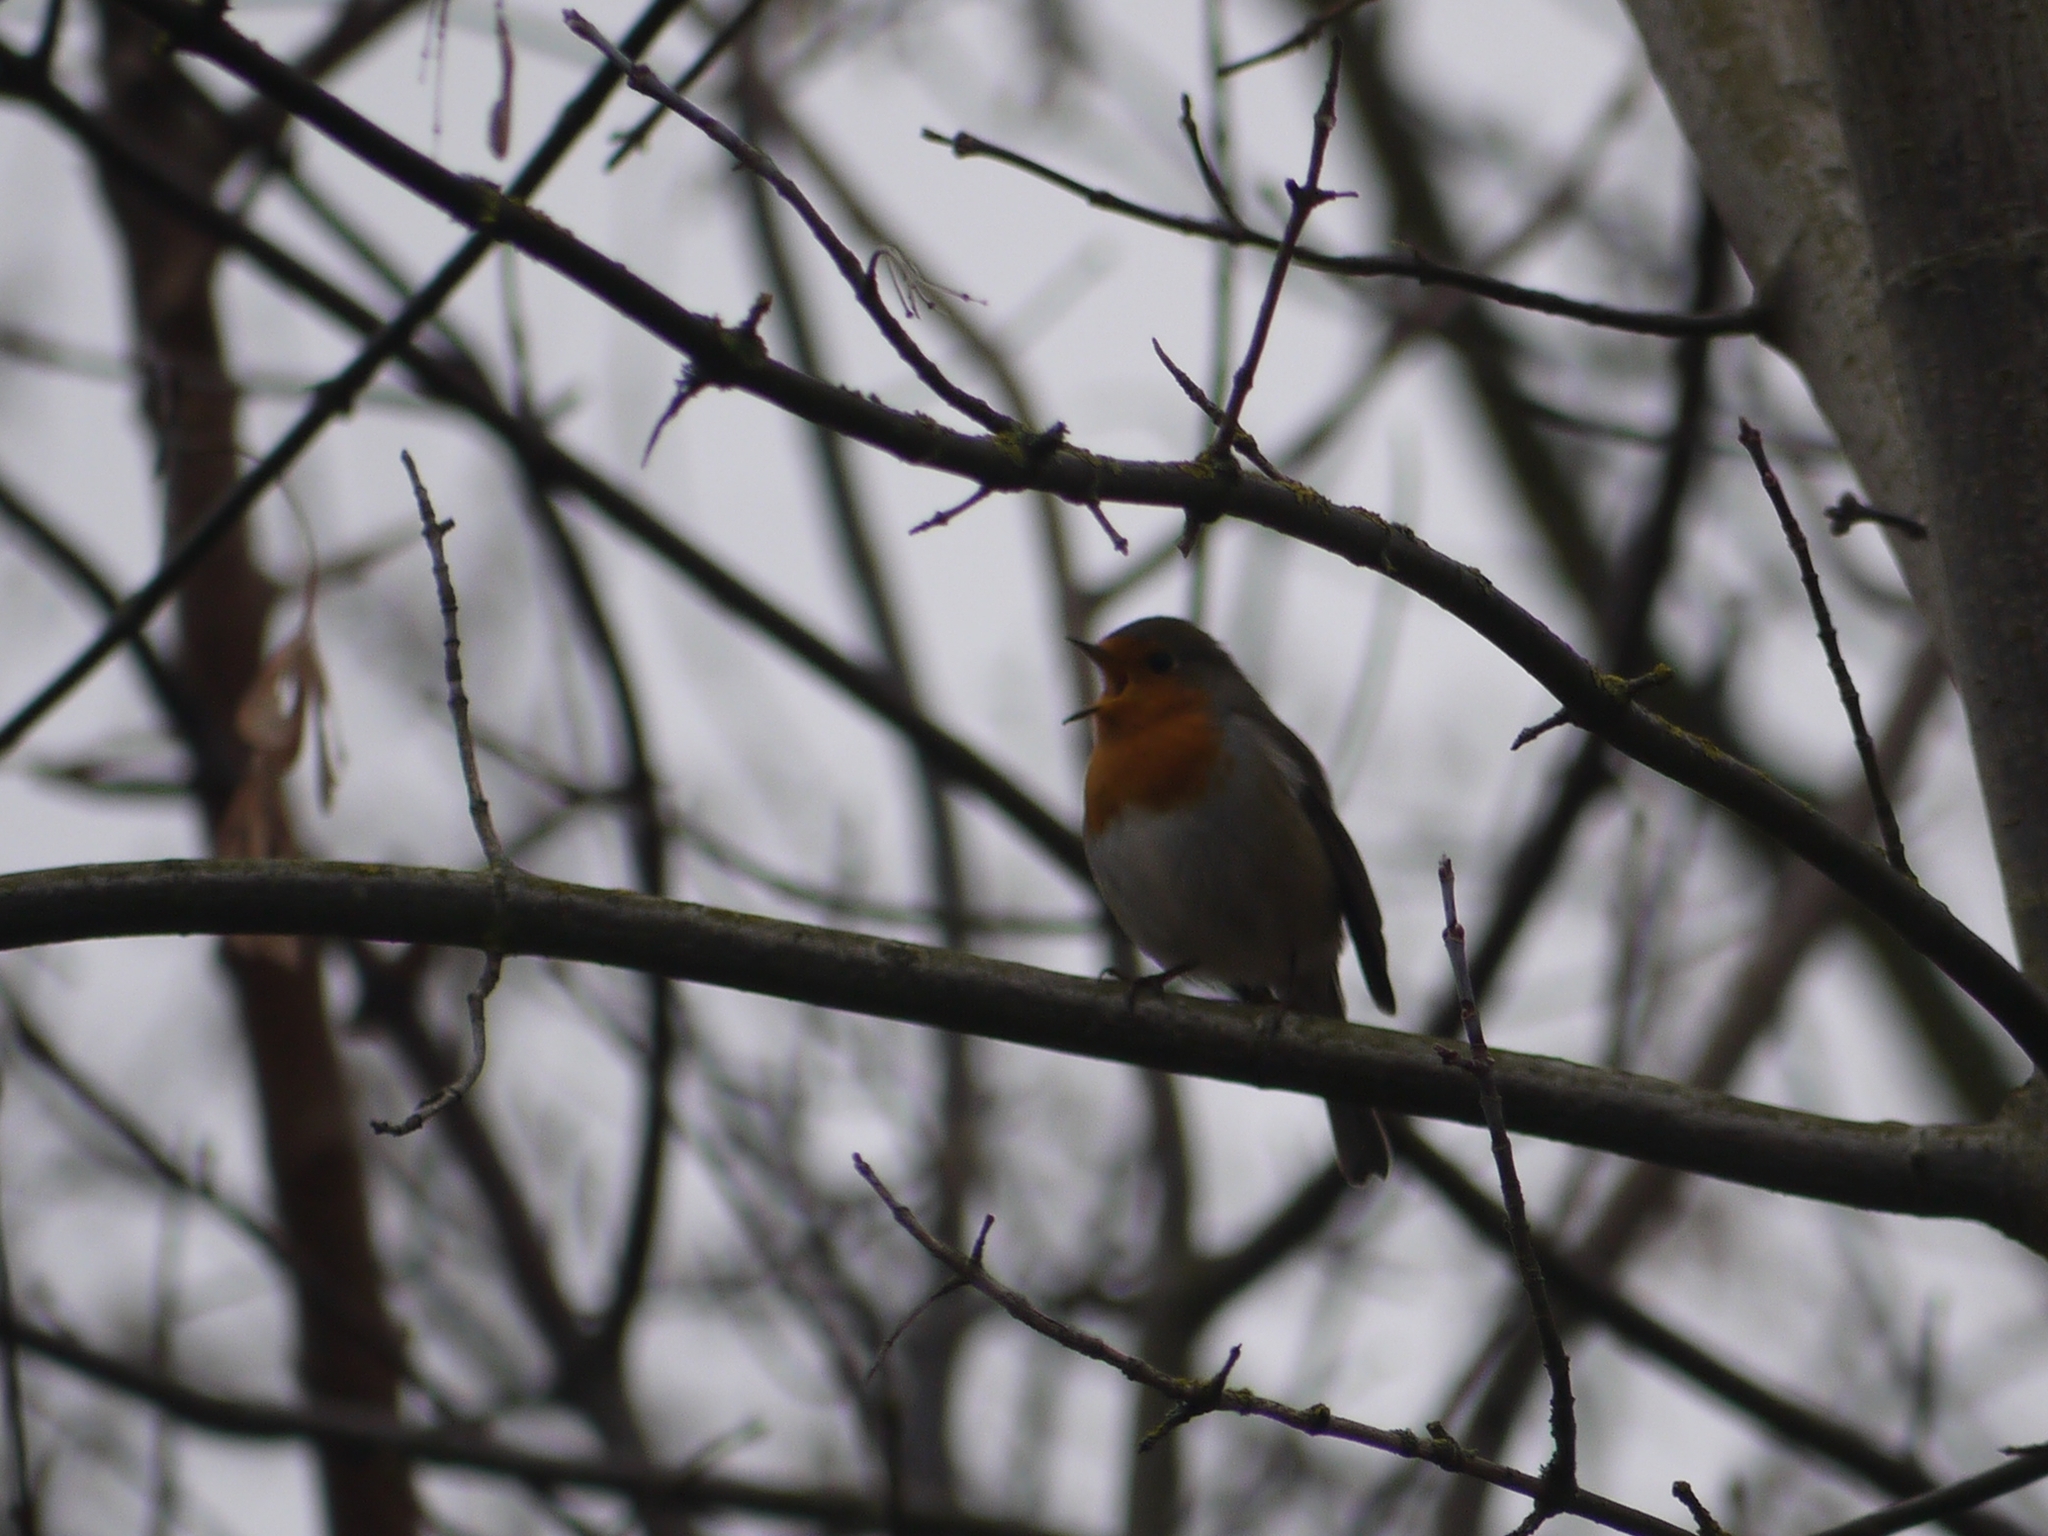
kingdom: Animalia
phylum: Chordata
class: Aves
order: Passeriformes
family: Muscicapidae
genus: Erithacus
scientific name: Erithacus rubecula
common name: European robin
